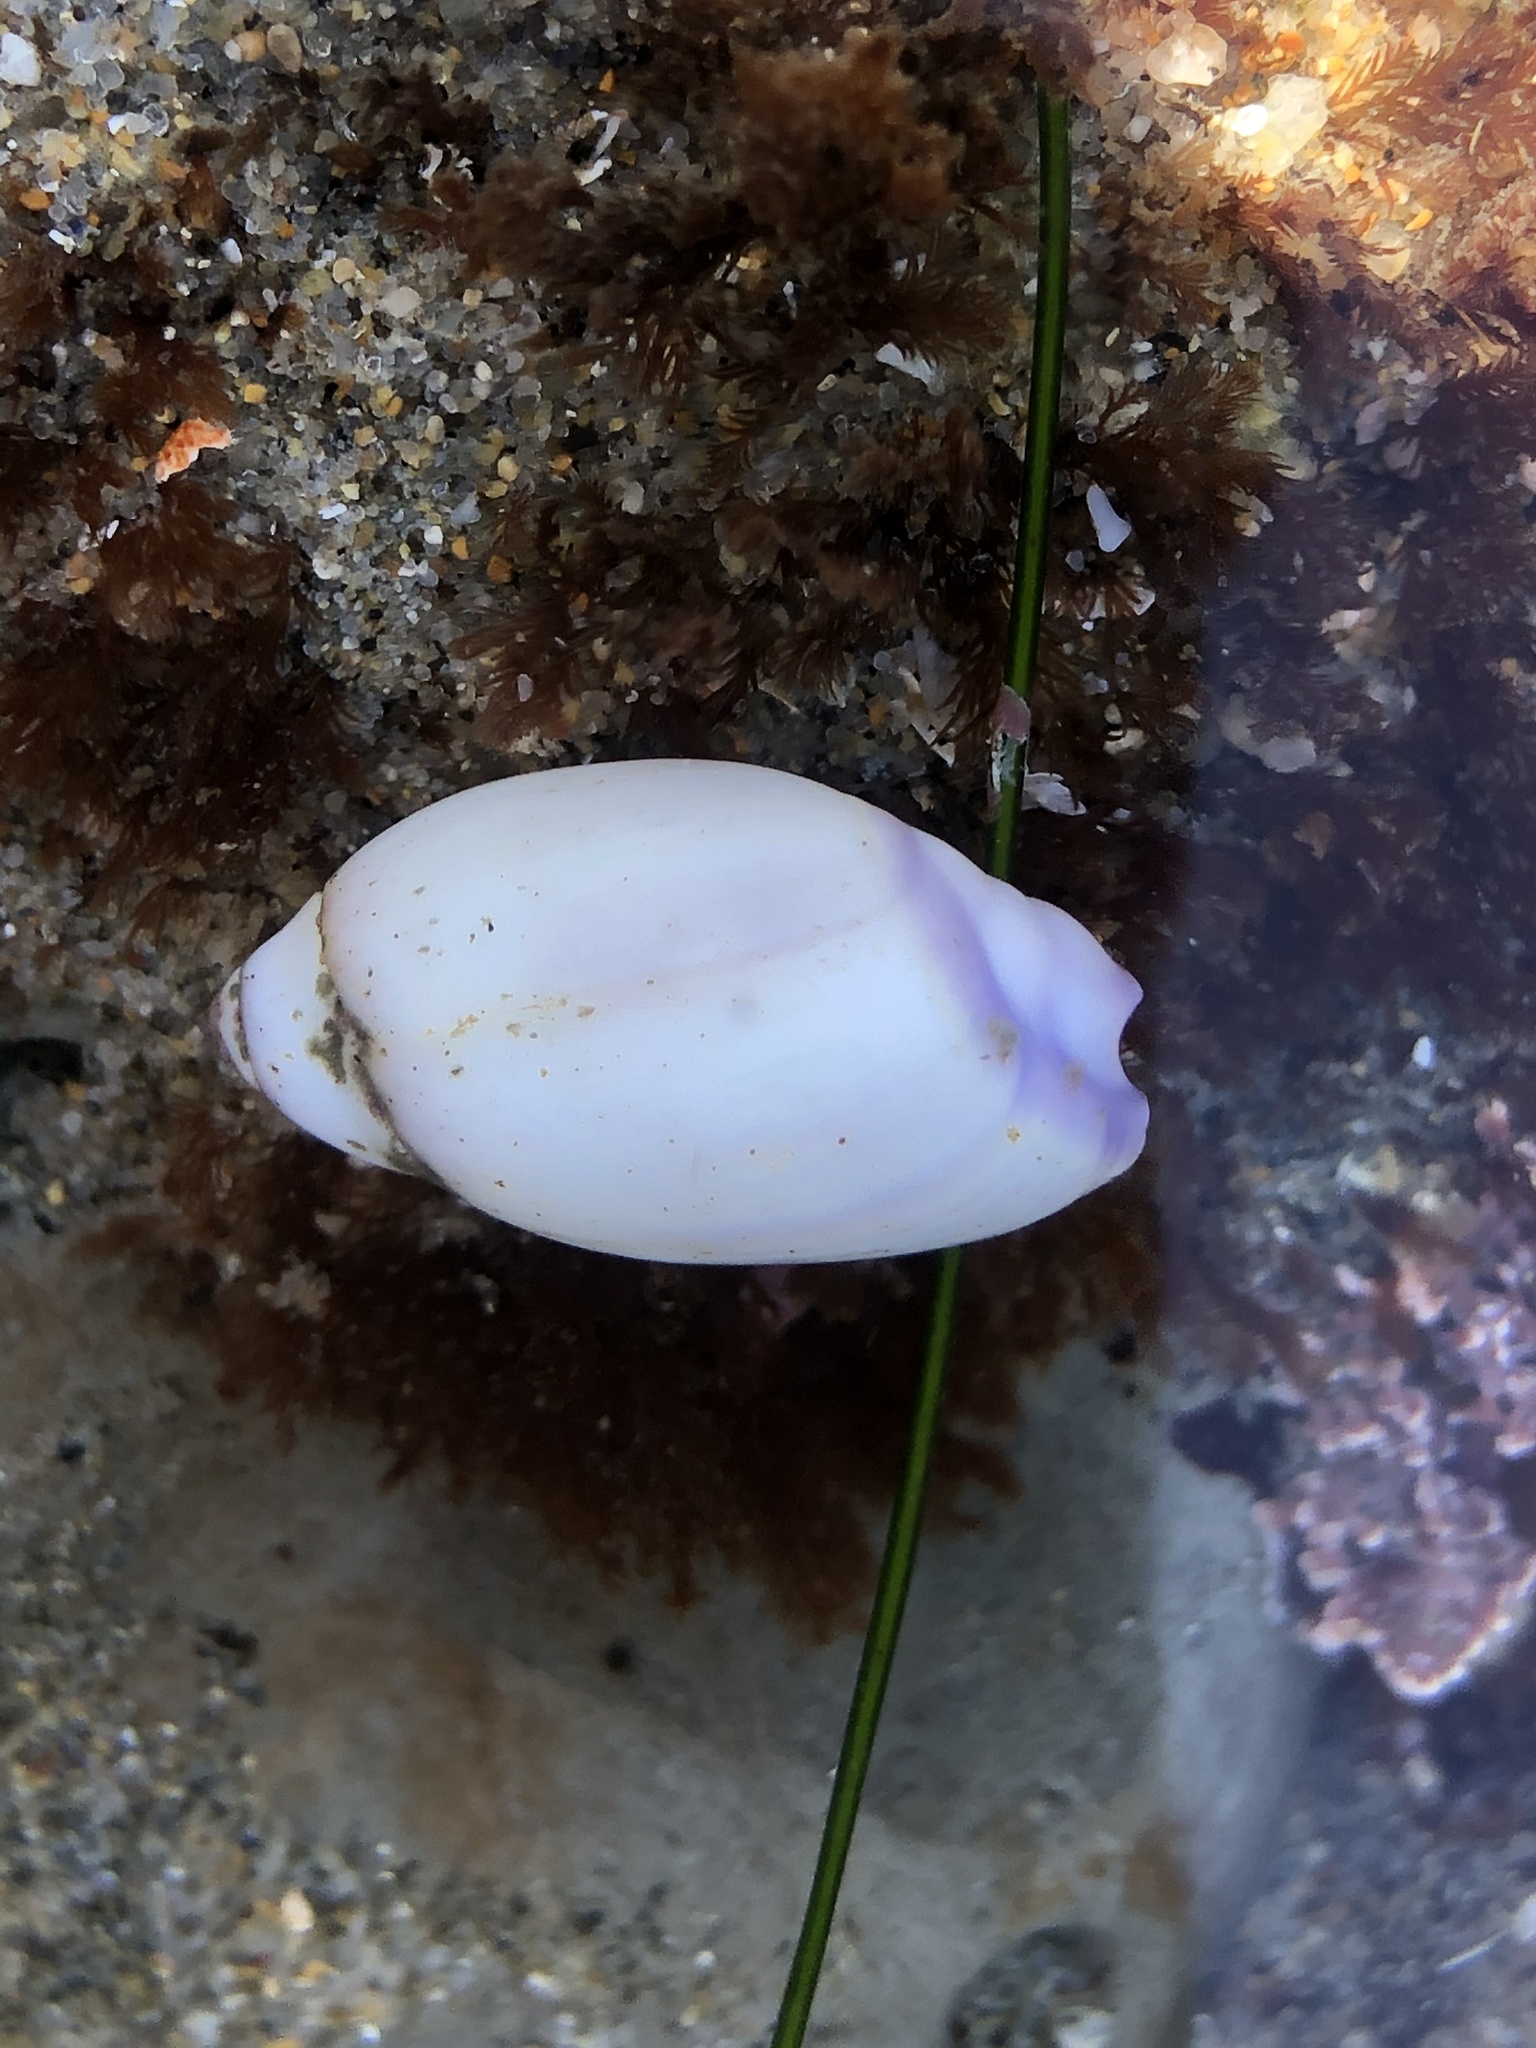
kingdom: Animalia
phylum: Mollusca
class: Gastropoda
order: Neogastropoda
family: Olividae
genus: Callianax
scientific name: Callianax biplicata
